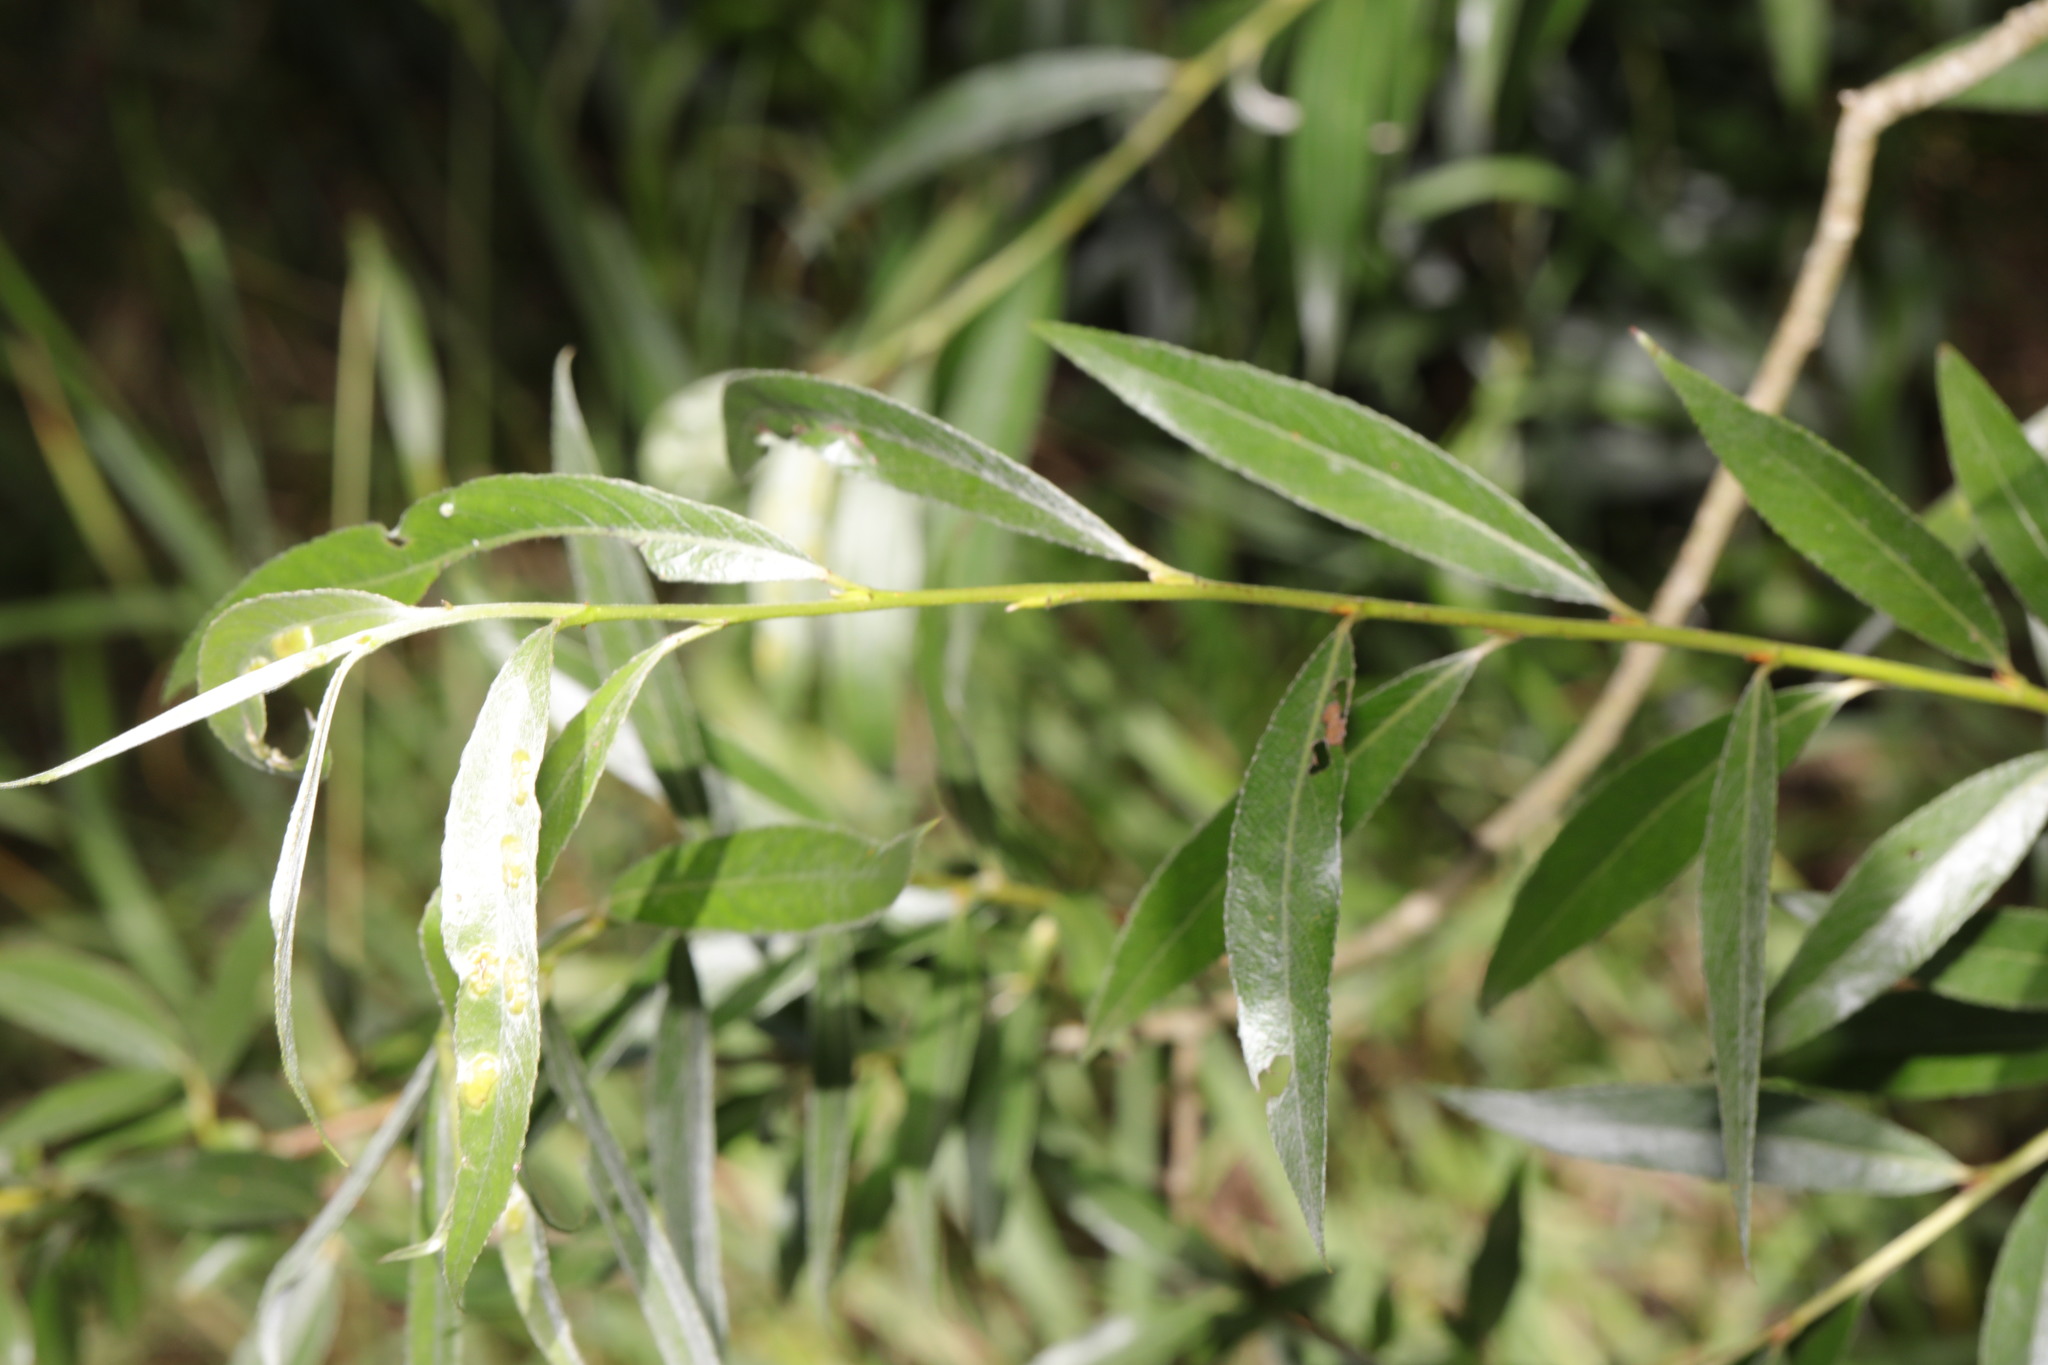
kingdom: Plantae
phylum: Tracheophyta
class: Magnoliopsida
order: Malpighiales
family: Salicaceae
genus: Salix
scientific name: Salix alba
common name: White willow
